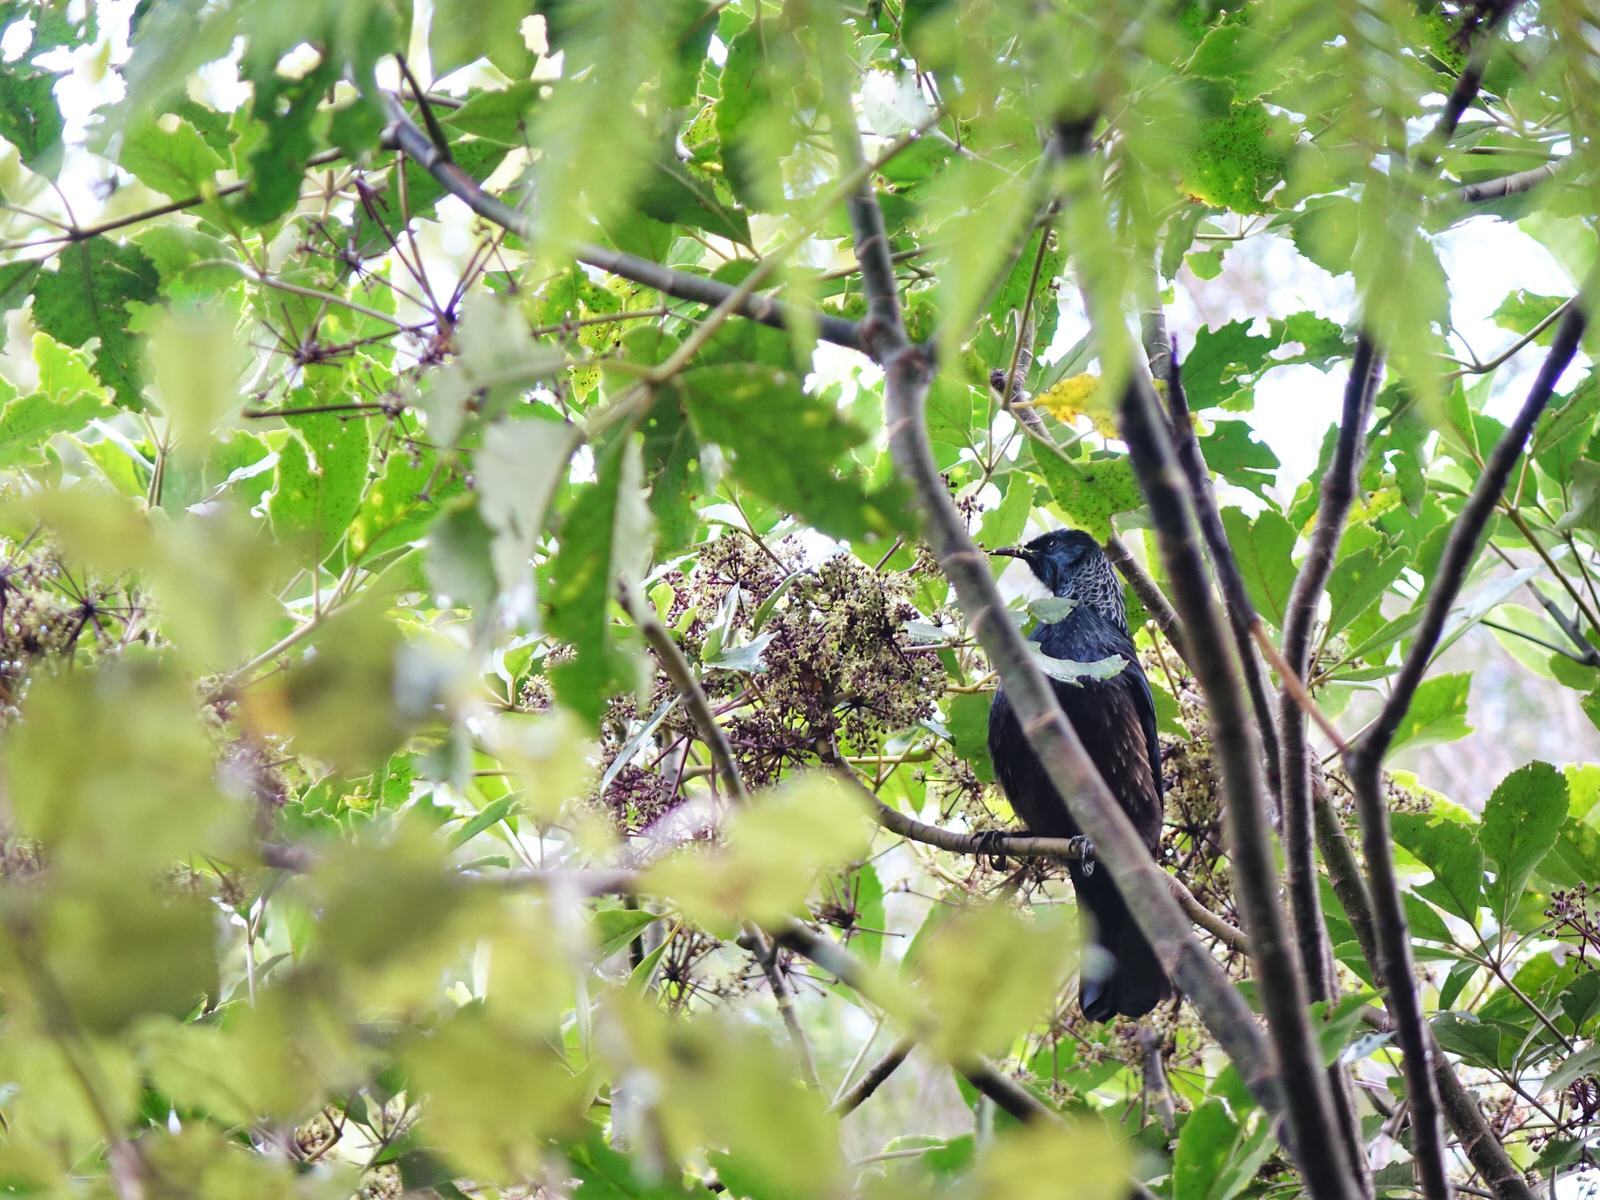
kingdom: Animalia
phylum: Chordata
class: Aves
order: Passeriformes
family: Meliphagidae
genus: Prosthemadera
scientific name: Prosthemadera novaeseelandiae
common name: Tui
